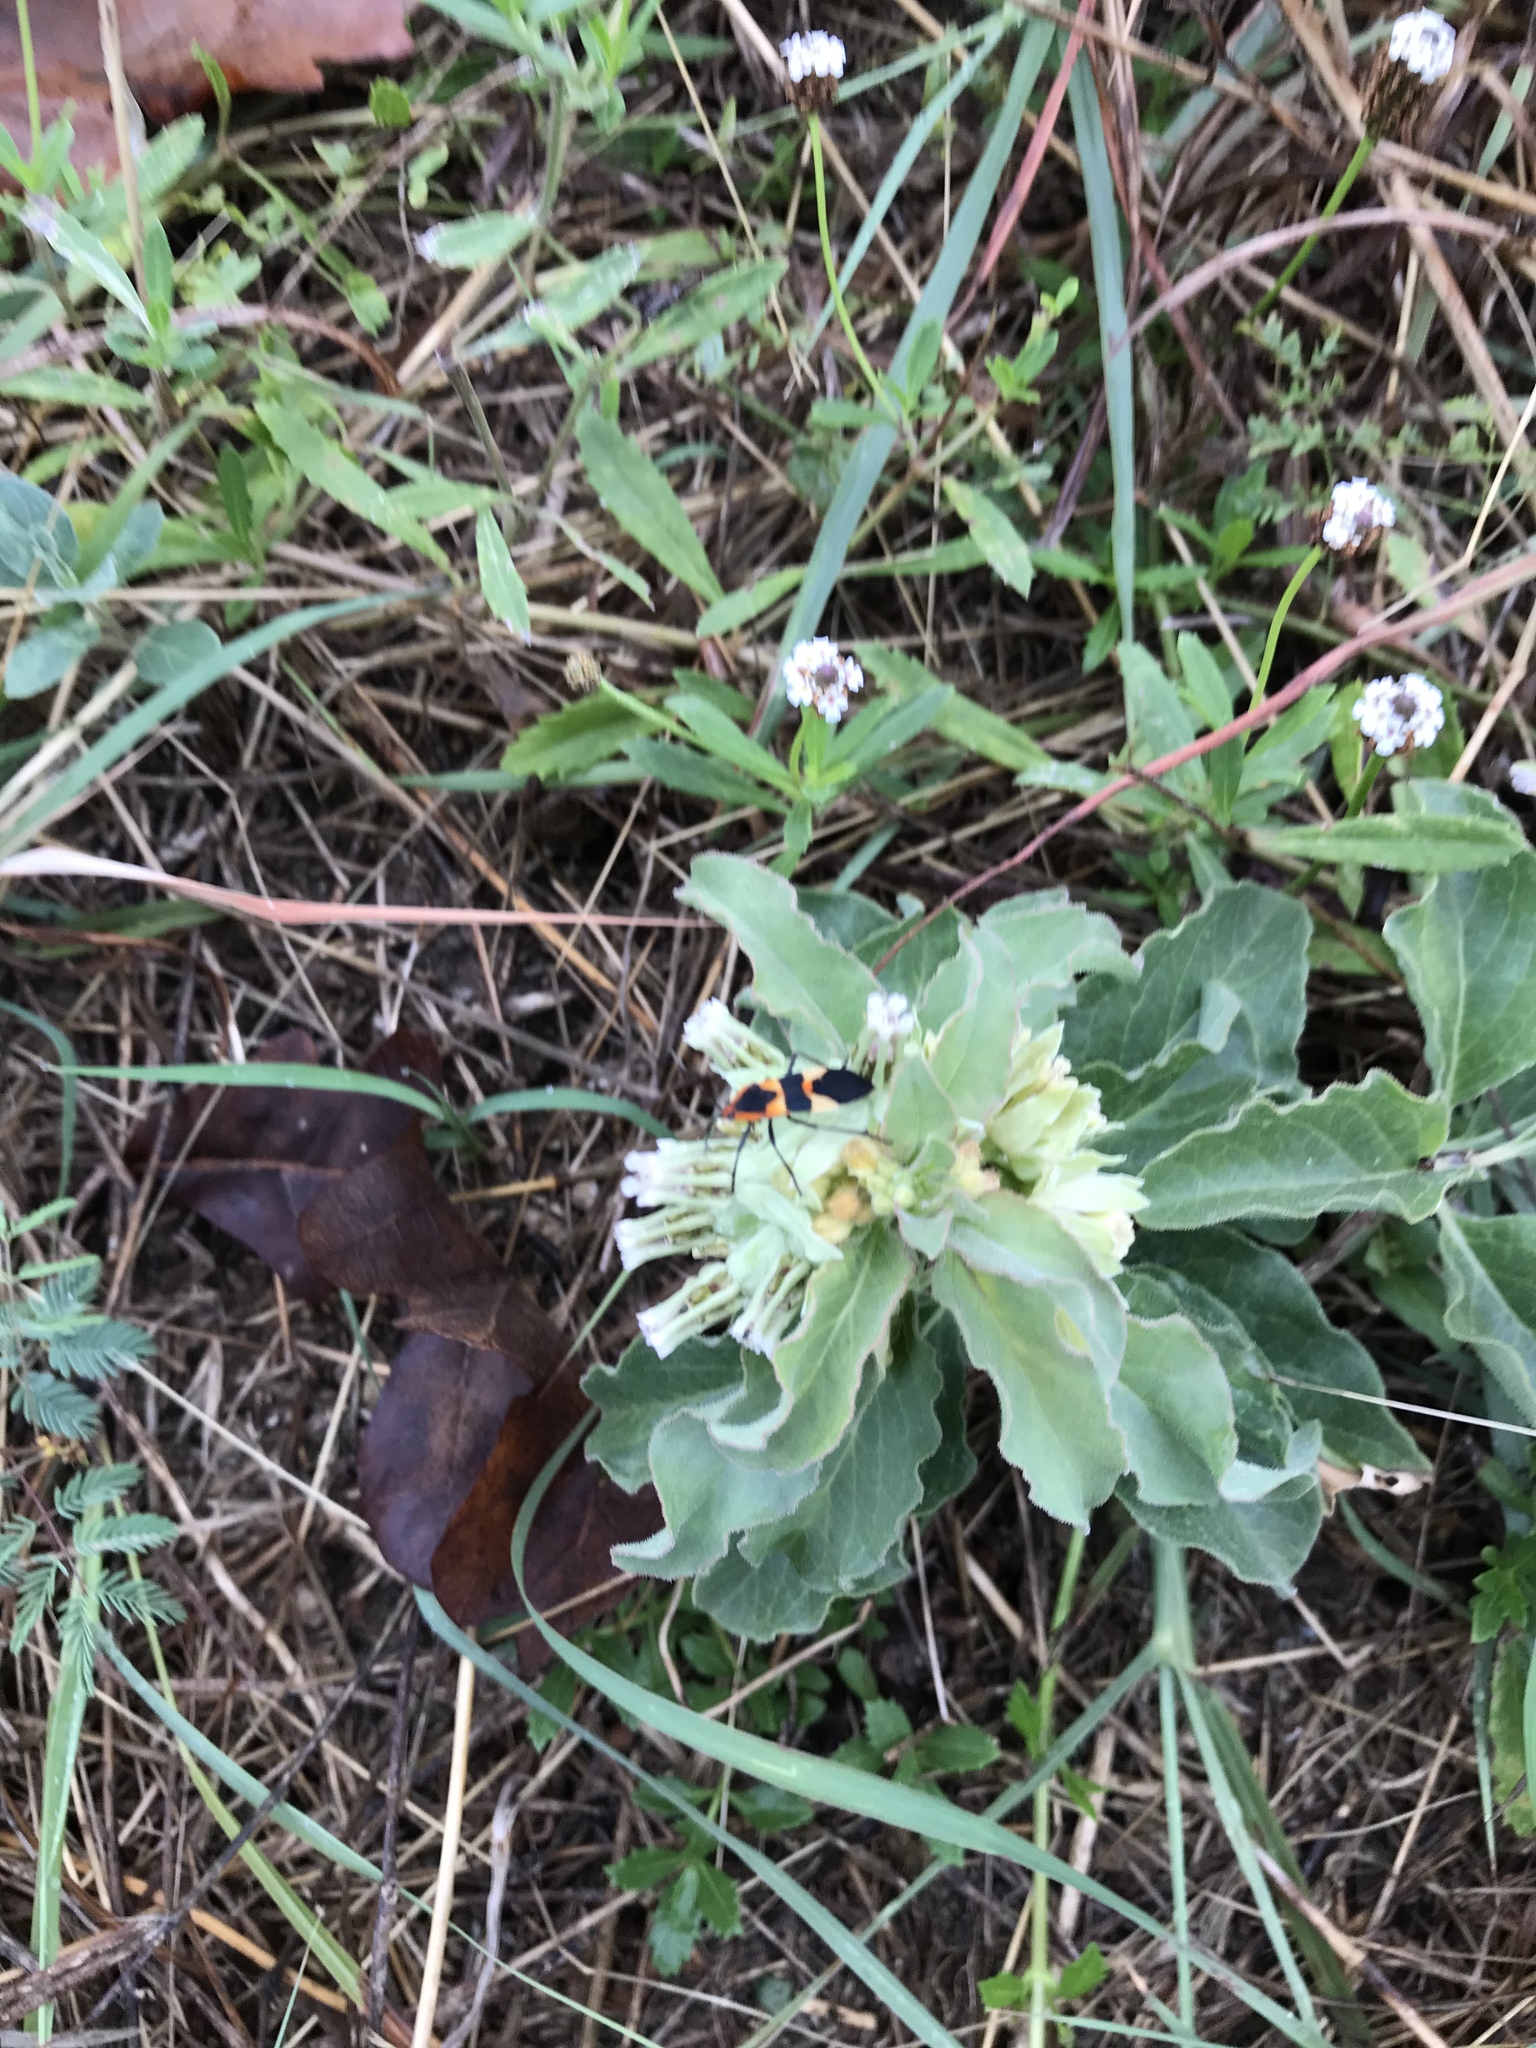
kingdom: Plantae
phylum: Tracheophyta
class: Magnoliopsida
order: Gentianales
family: Apocynaceae
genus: Asclepias
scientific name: Asclepias oenotheroides
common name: Zizotes milkweed
